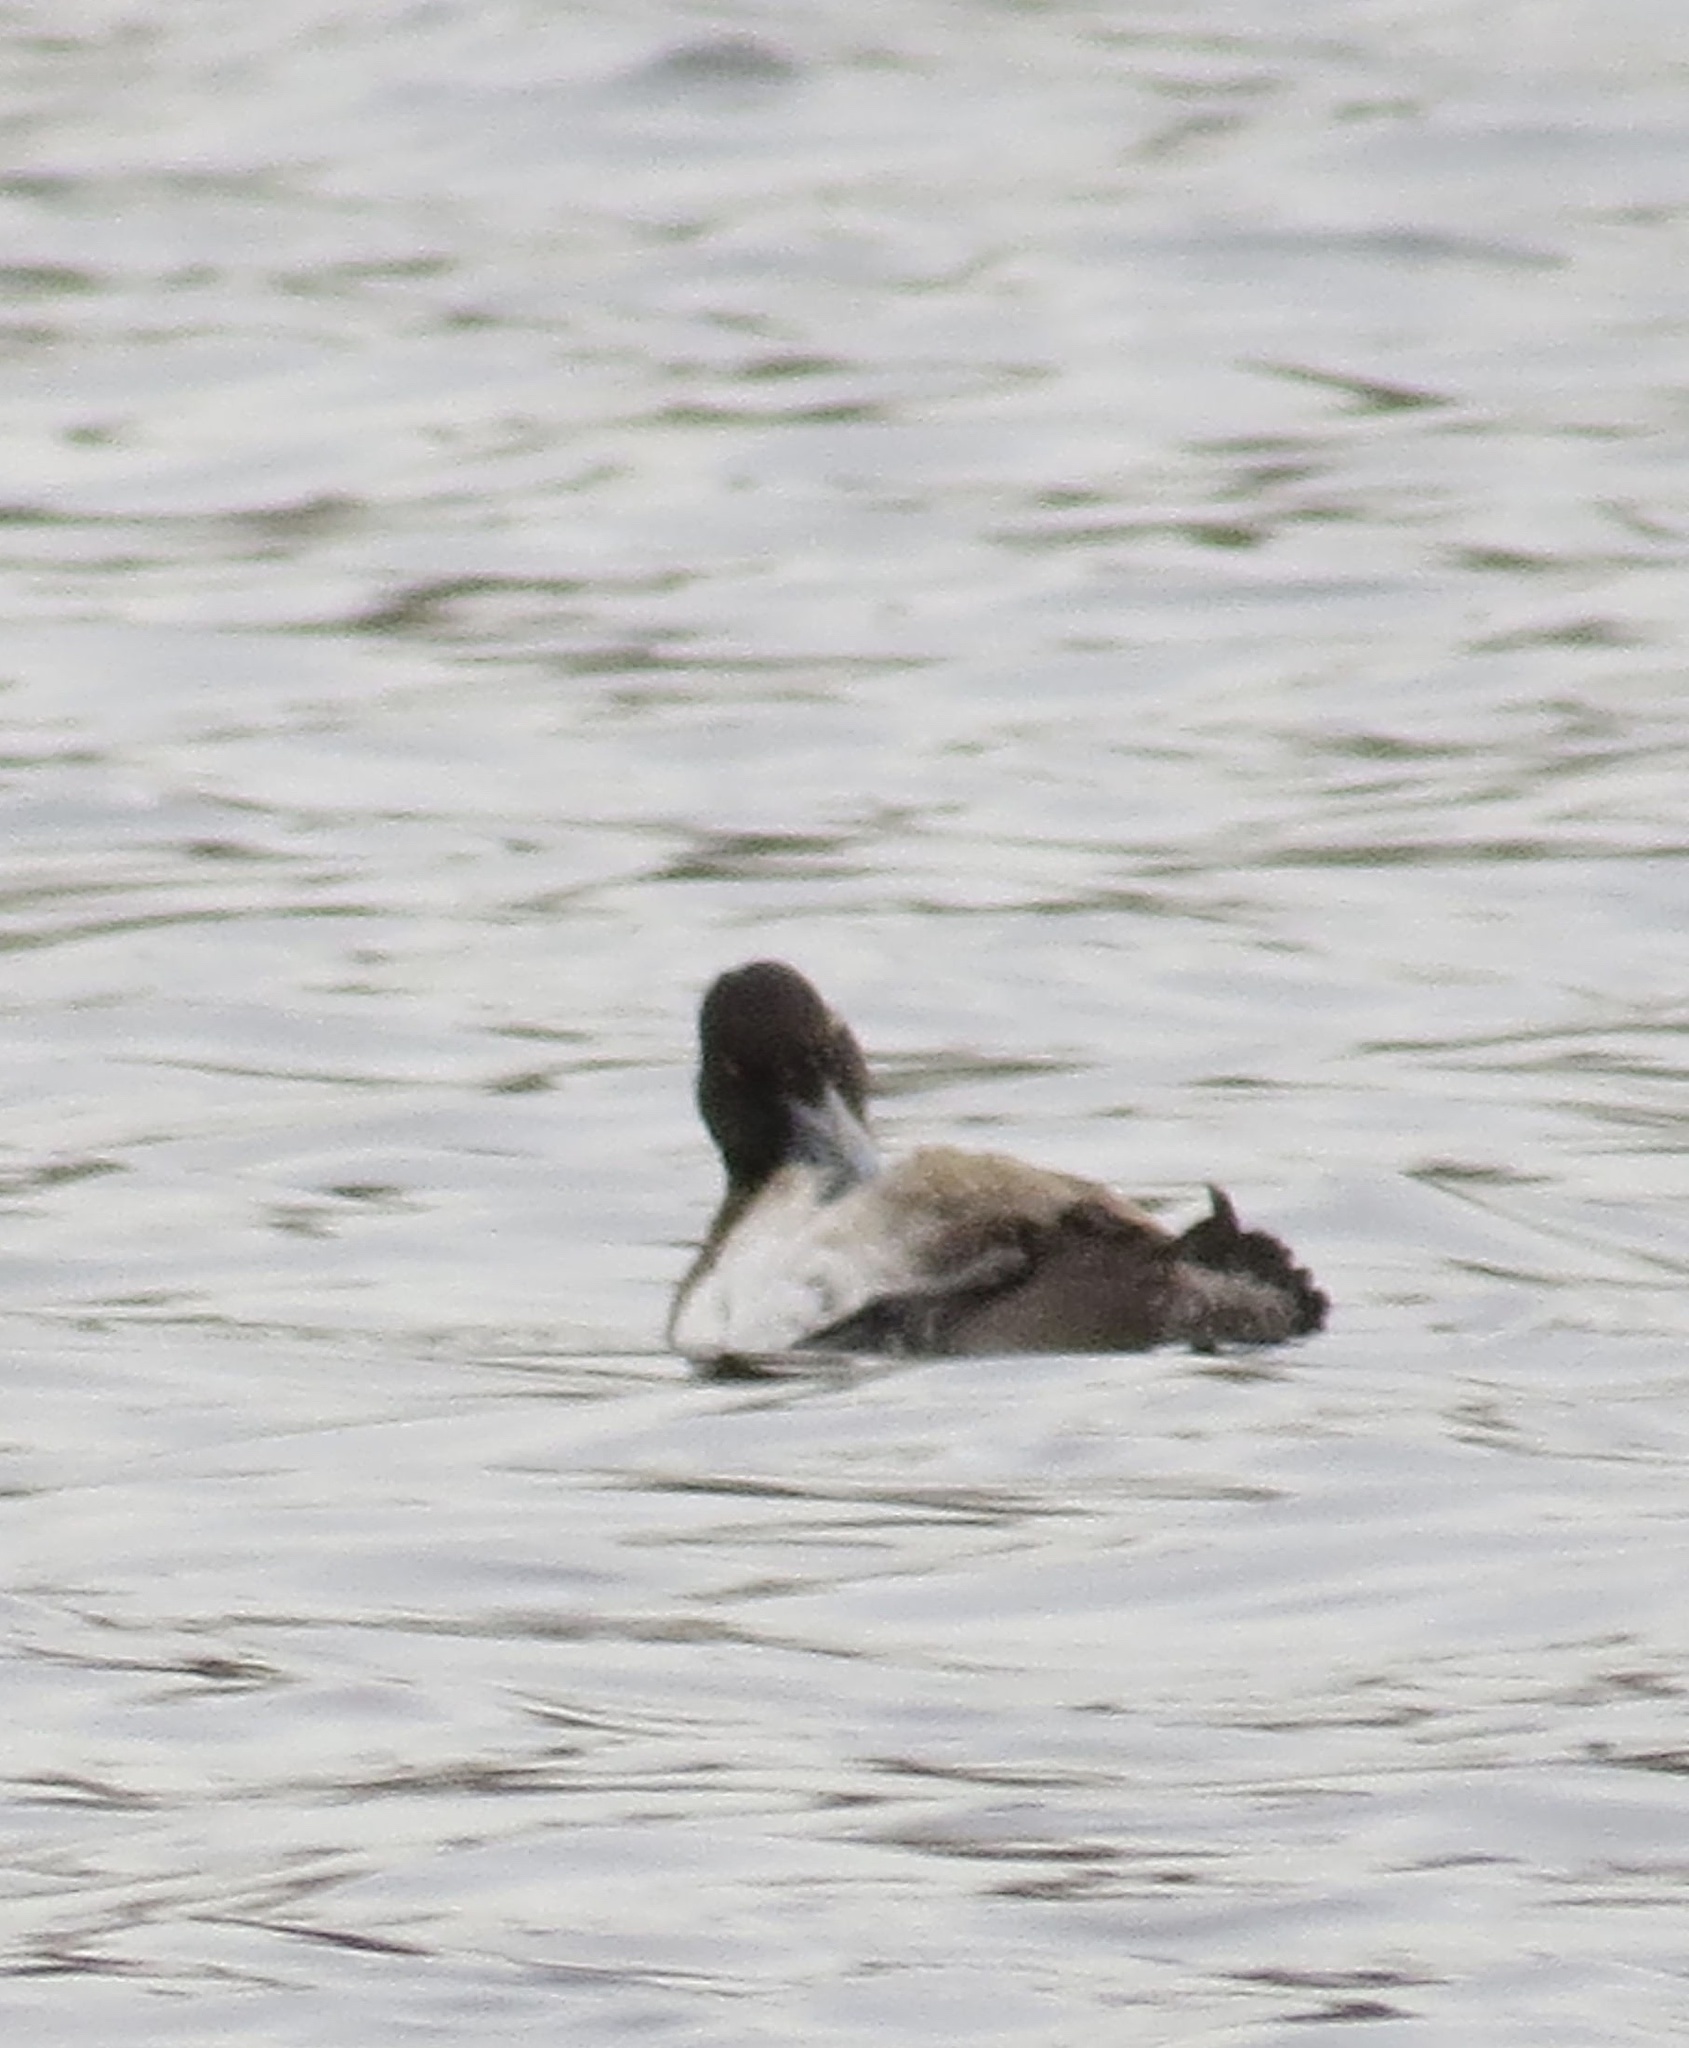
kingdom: Animalia
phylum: Chordata
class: Aves
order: Anseriformes
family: Anatidae
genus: Aythya
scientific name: Aythya marila
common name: Greater scaup
